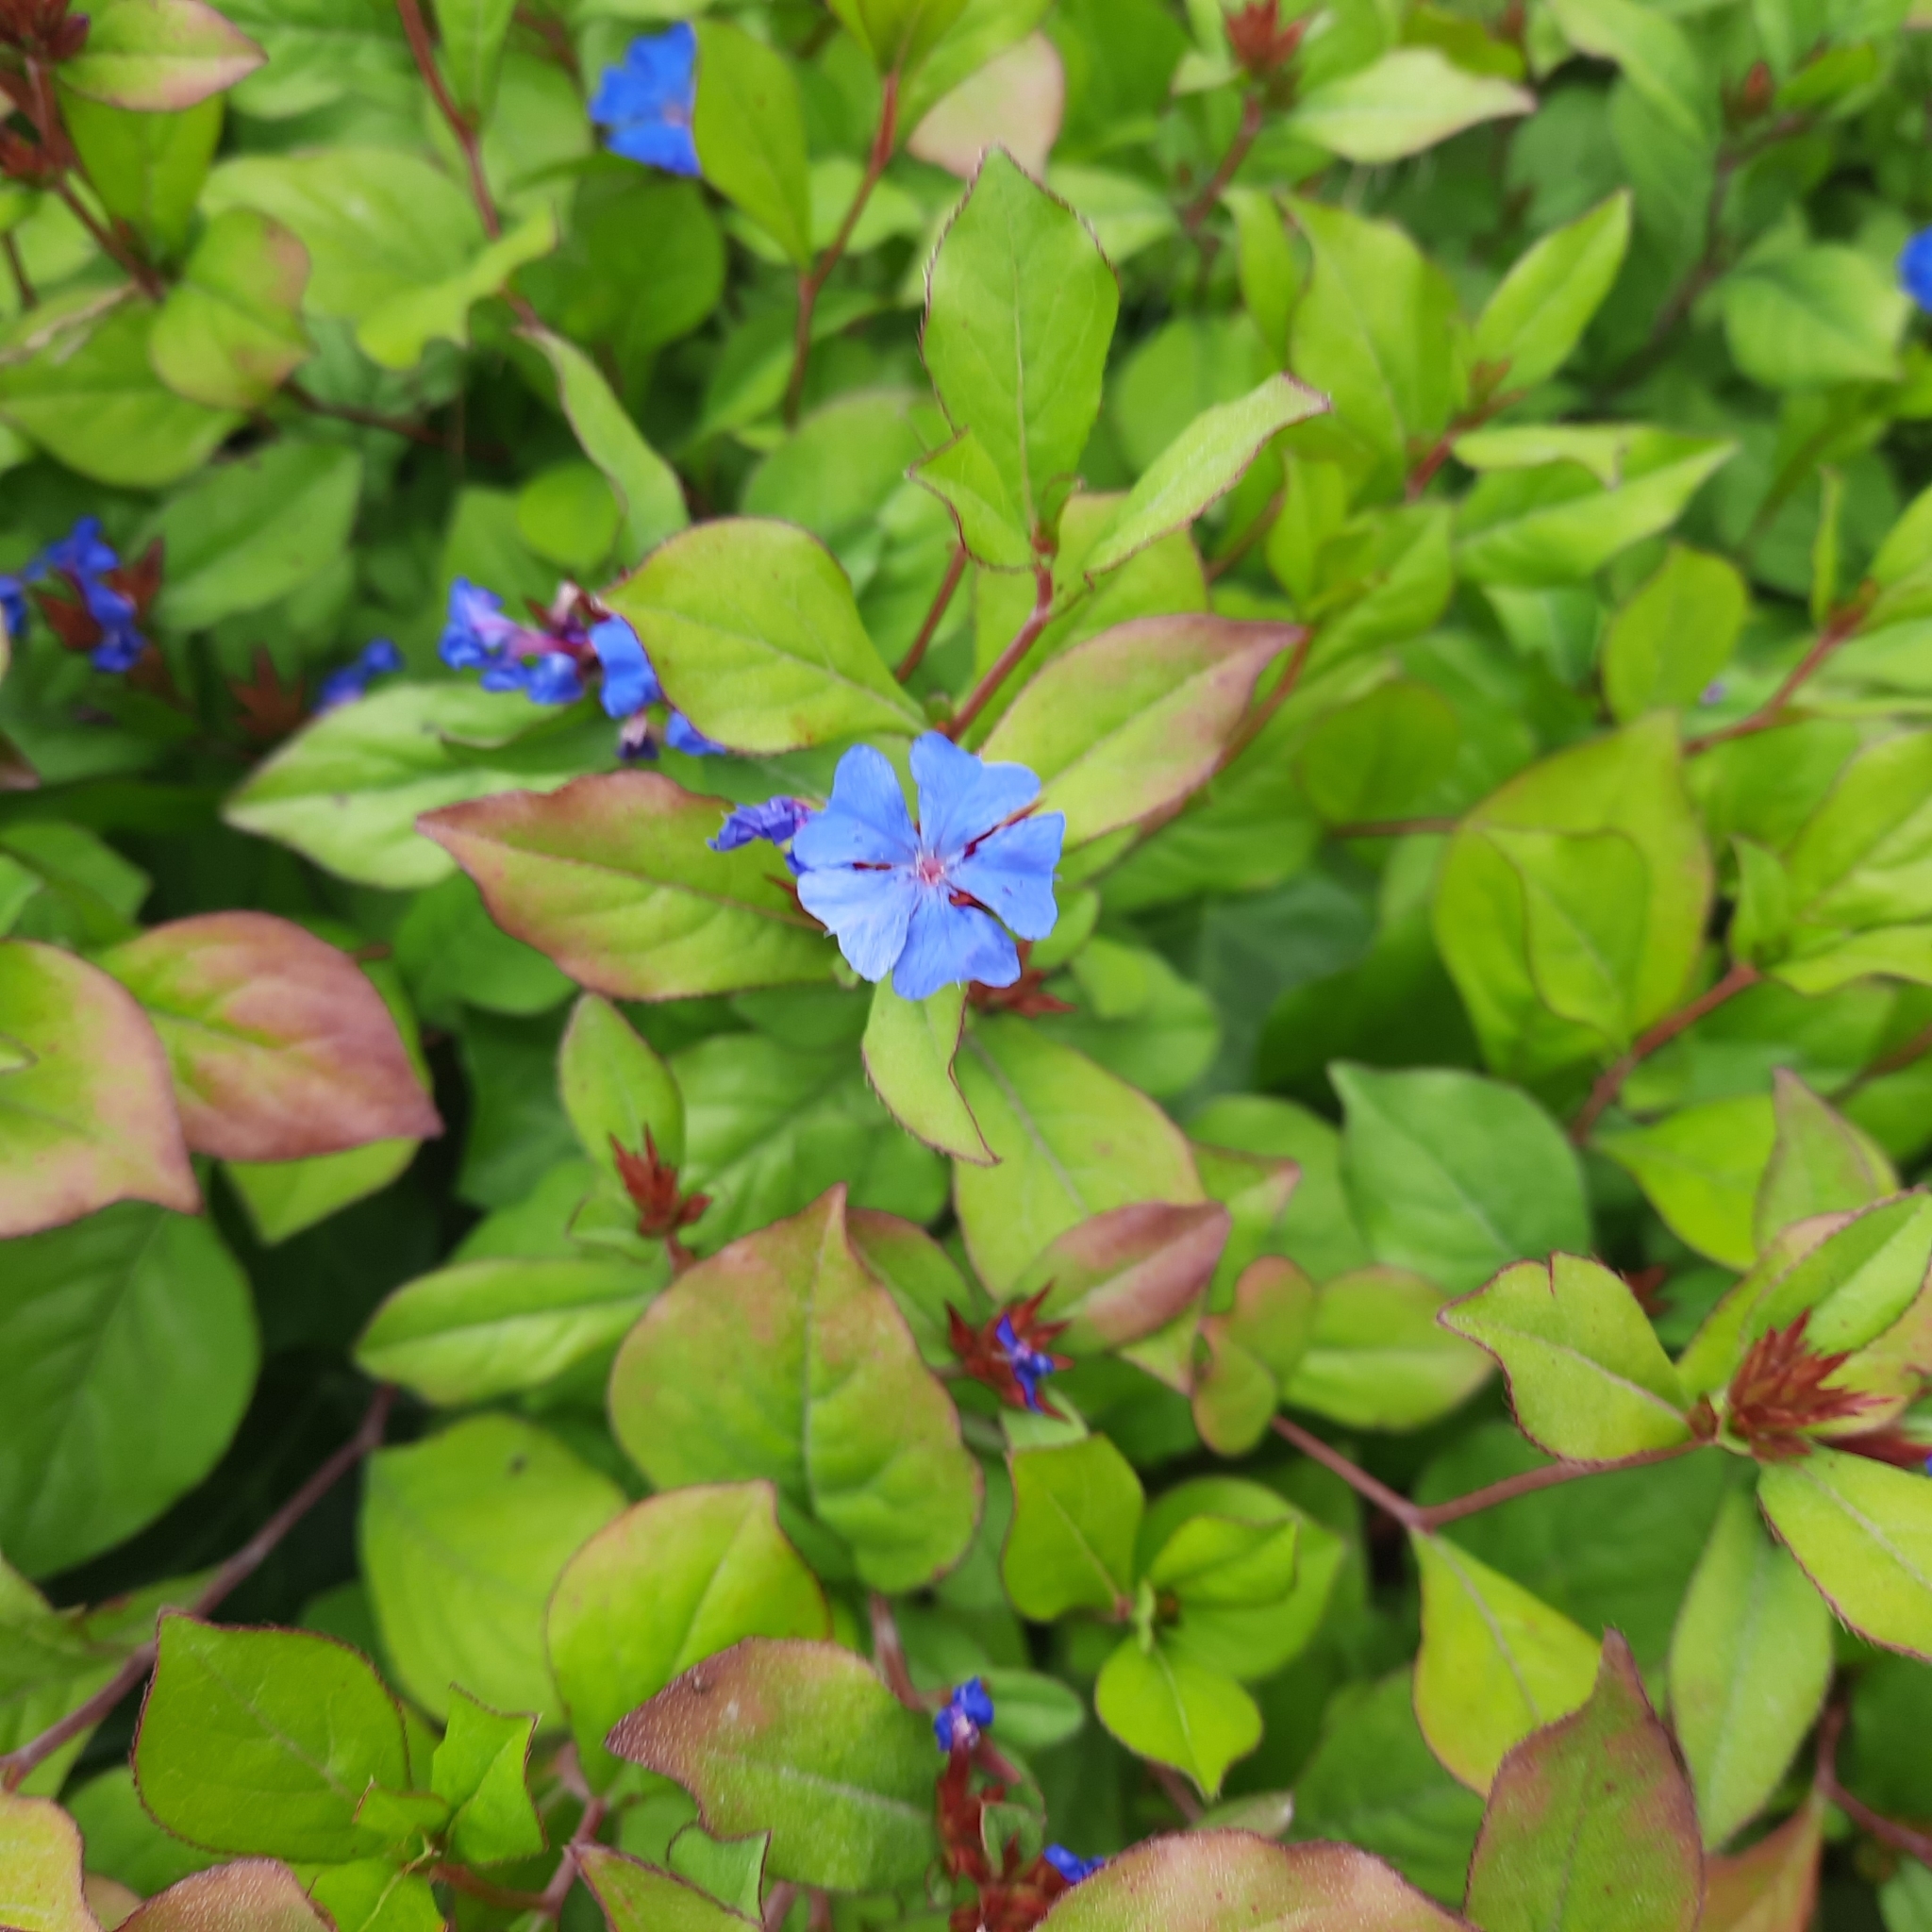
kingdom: Plantae
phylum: Tracheophyta
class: Magnoliopsida
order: Caryophyllales
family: Plumbaginaceae
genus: Ceratostigma
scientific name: Ceratostigma plumbaginoides
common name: Blue leadwood
